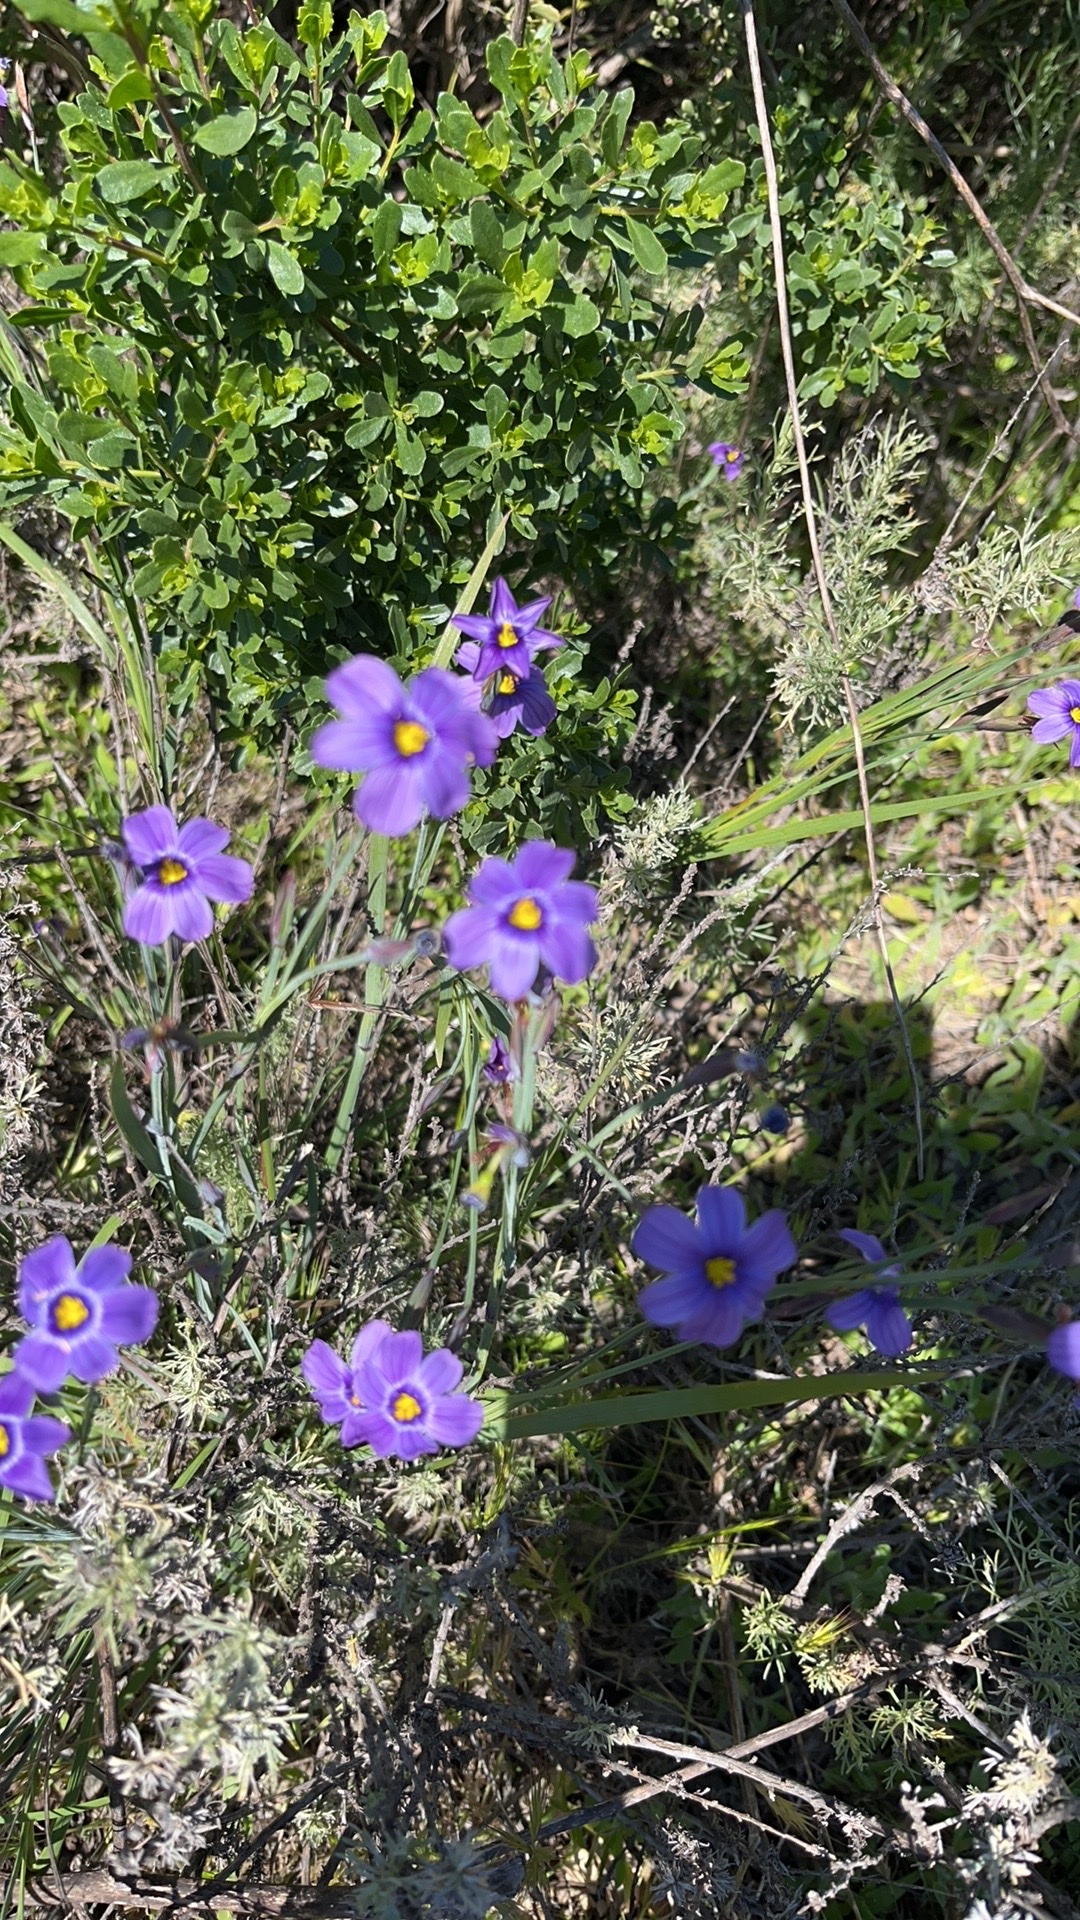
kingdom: Plantae
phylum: Tracheophyta
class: Liliopsida
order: Asparagales
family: Iridaceae
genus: Sisyrinchium
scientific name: Sisyrinchium bellum
